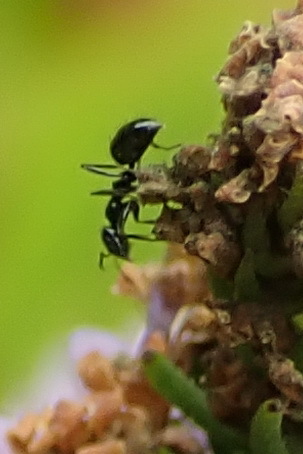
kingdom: Animalia
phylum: Arthropoda
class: Insecta
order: Hymenoptera
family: Formicidae
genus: Lepisiota
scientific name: Lepisiota capensis
